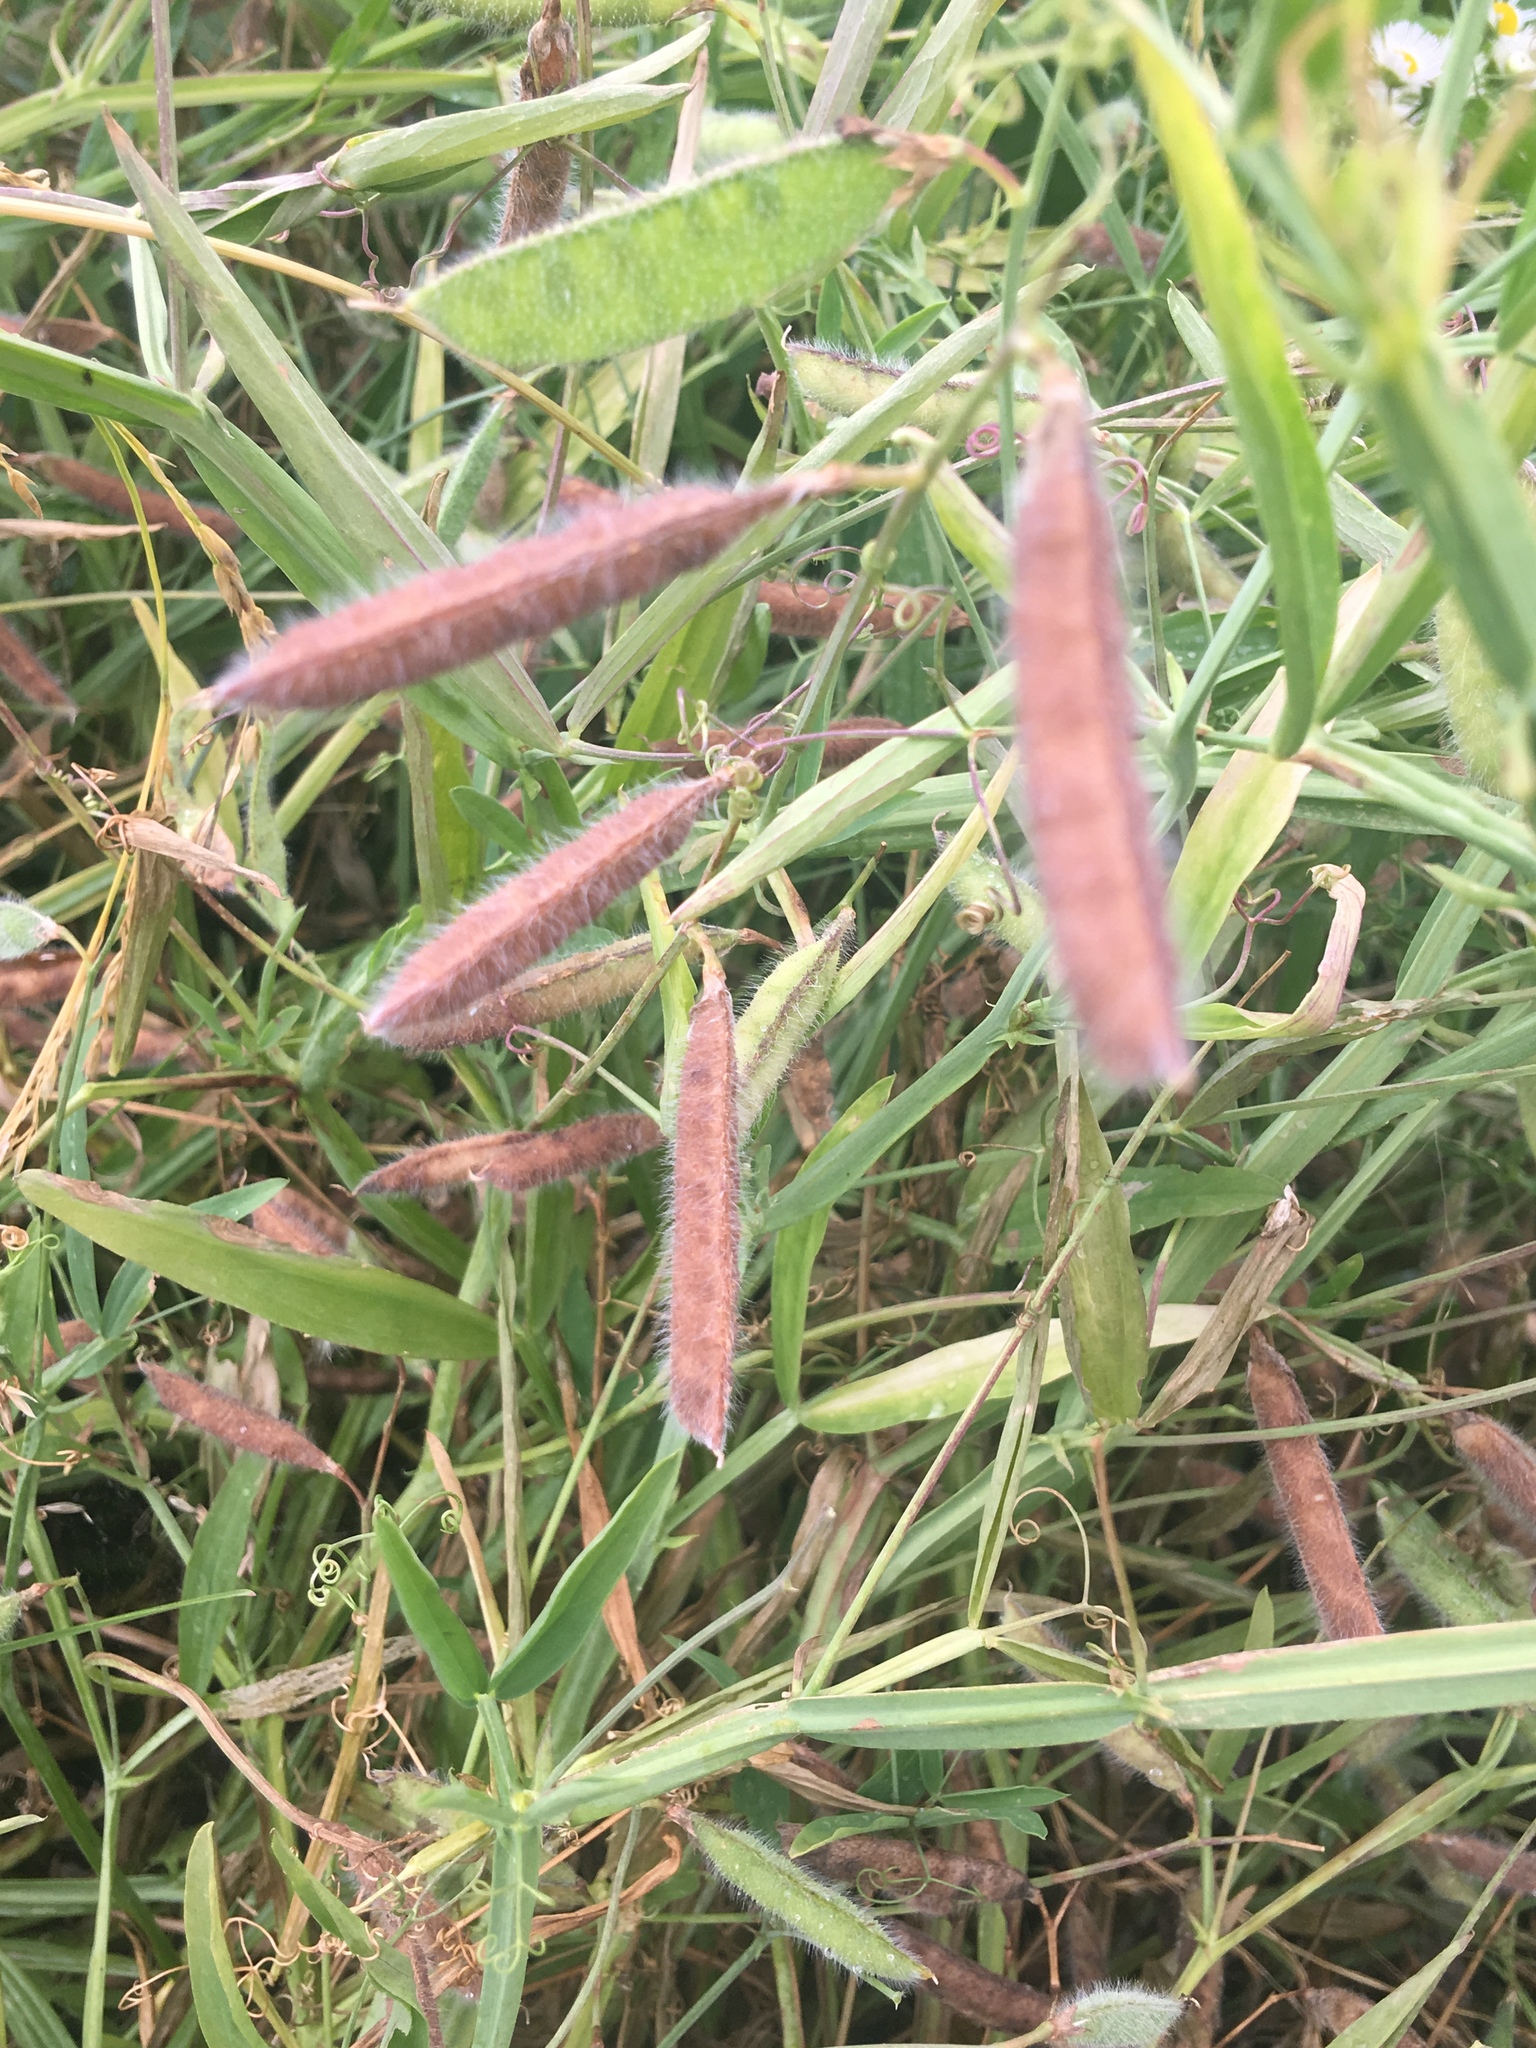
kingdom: Plantae
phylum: Tracheophyta
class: Magnoliopsida
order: Fabales
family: Fabaceae
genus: Lathyrus
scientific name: Lathyrus hirsutus
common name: Hairy vetchling
